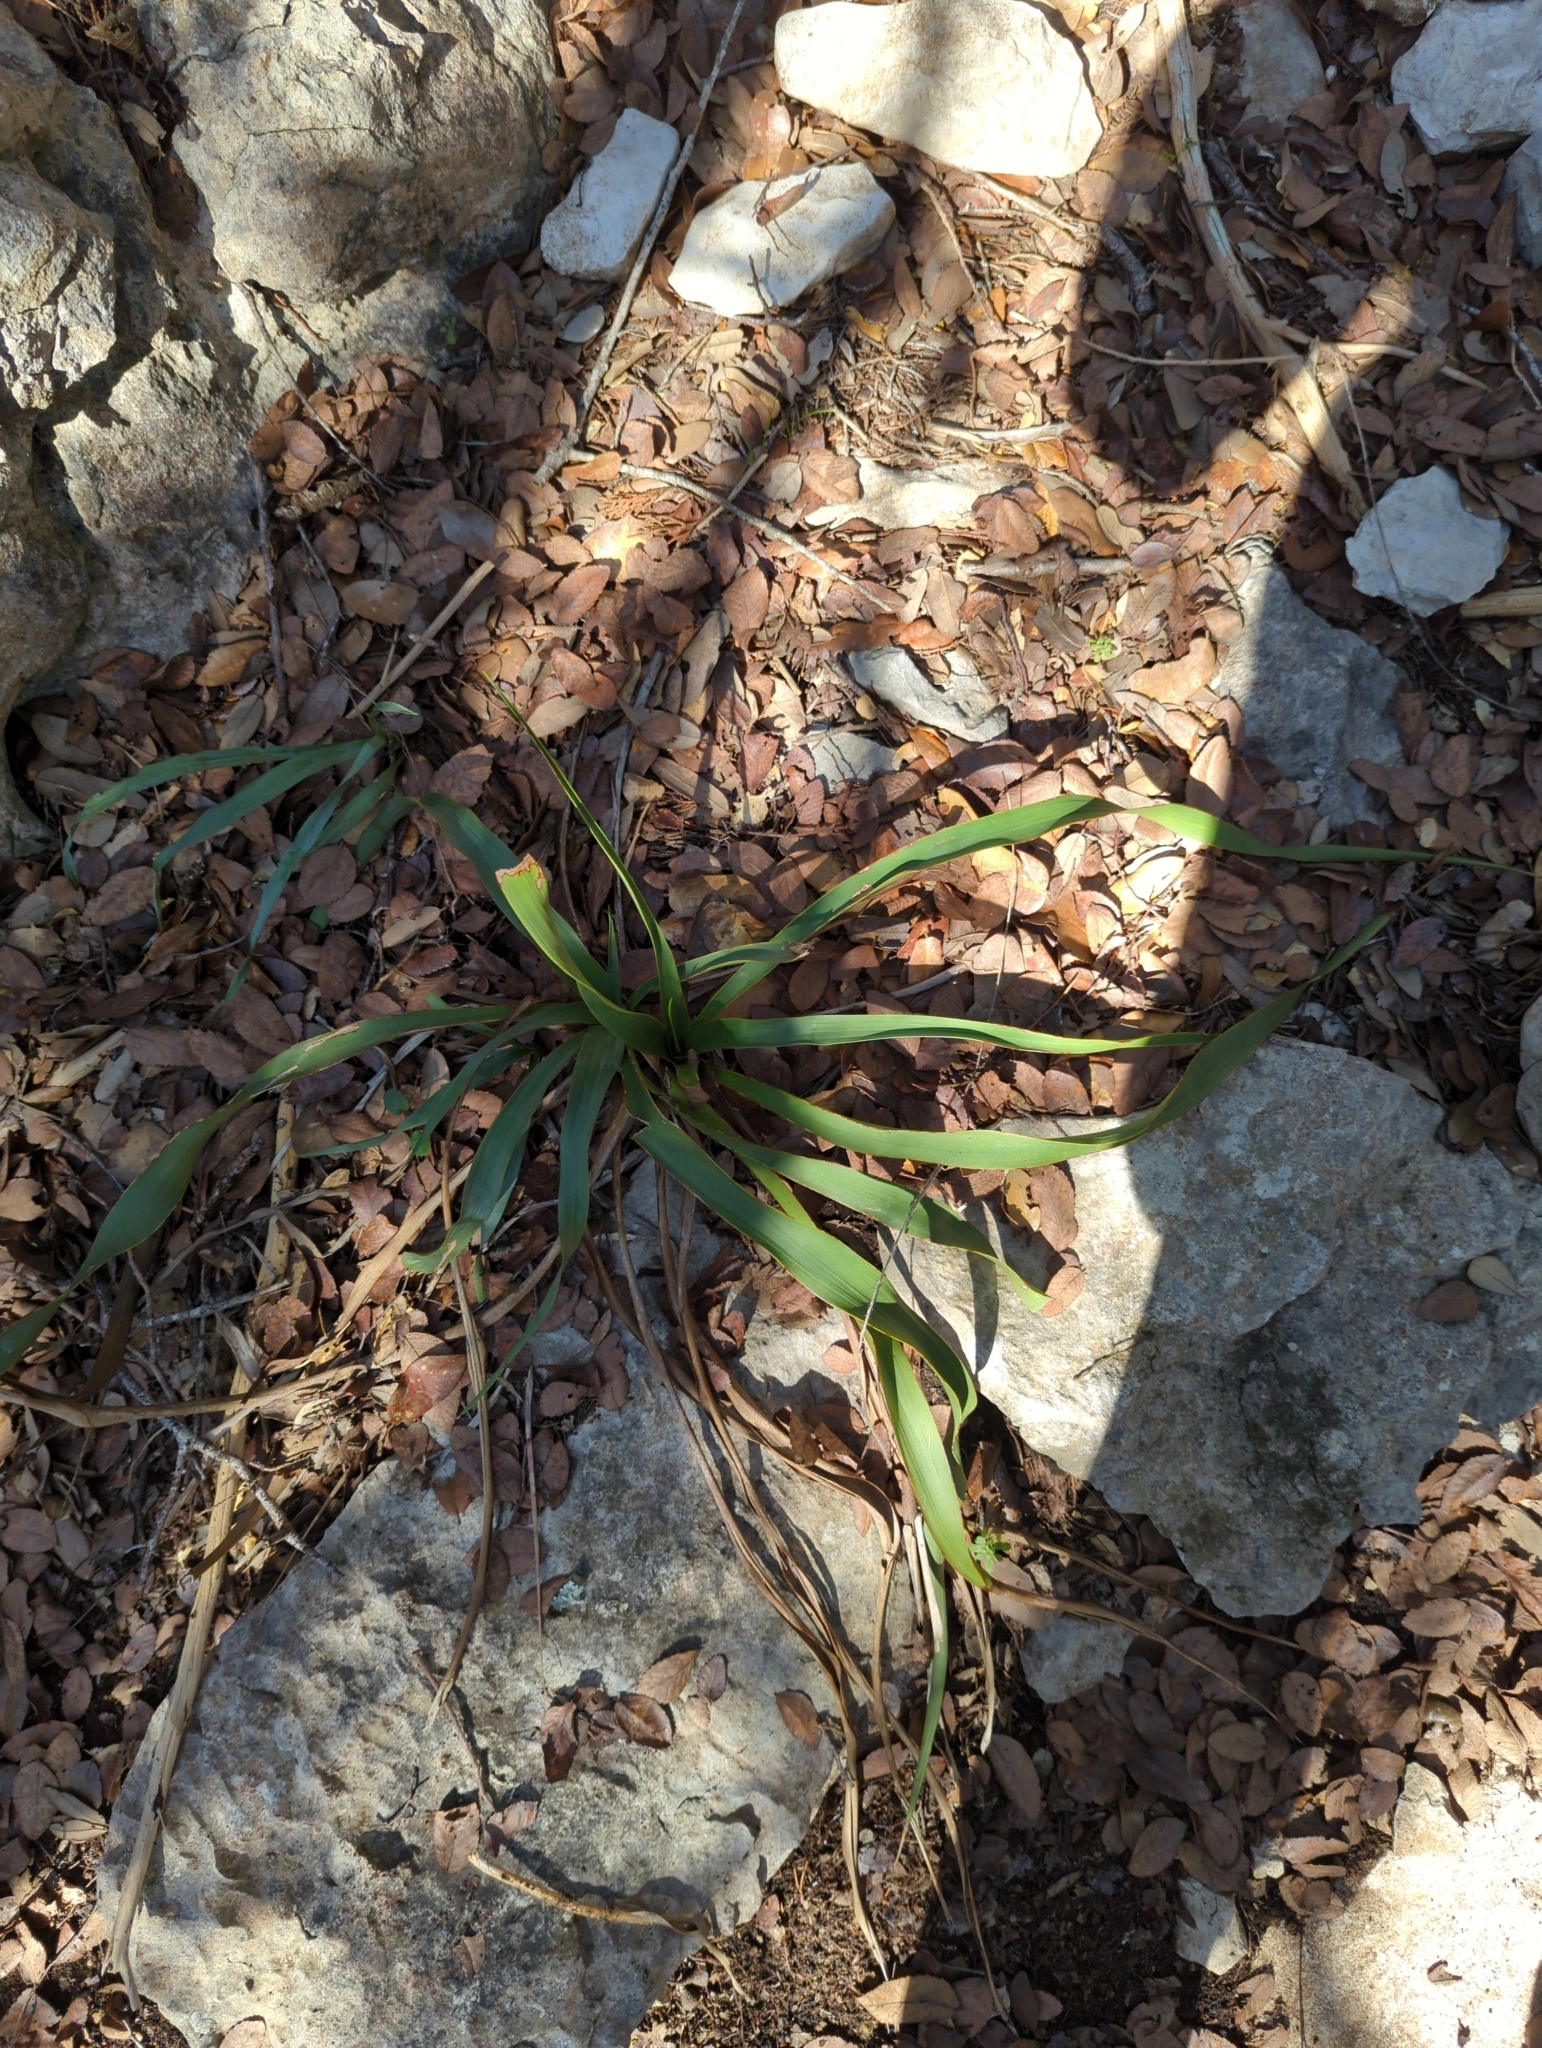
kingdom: Plantae
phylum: Tracheophyta
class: Liliopsida
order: Asparagales
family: Asparagaceae
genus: Yucca
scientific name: Yucca rupicola
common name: Twisted-leaf spanish-dagger
